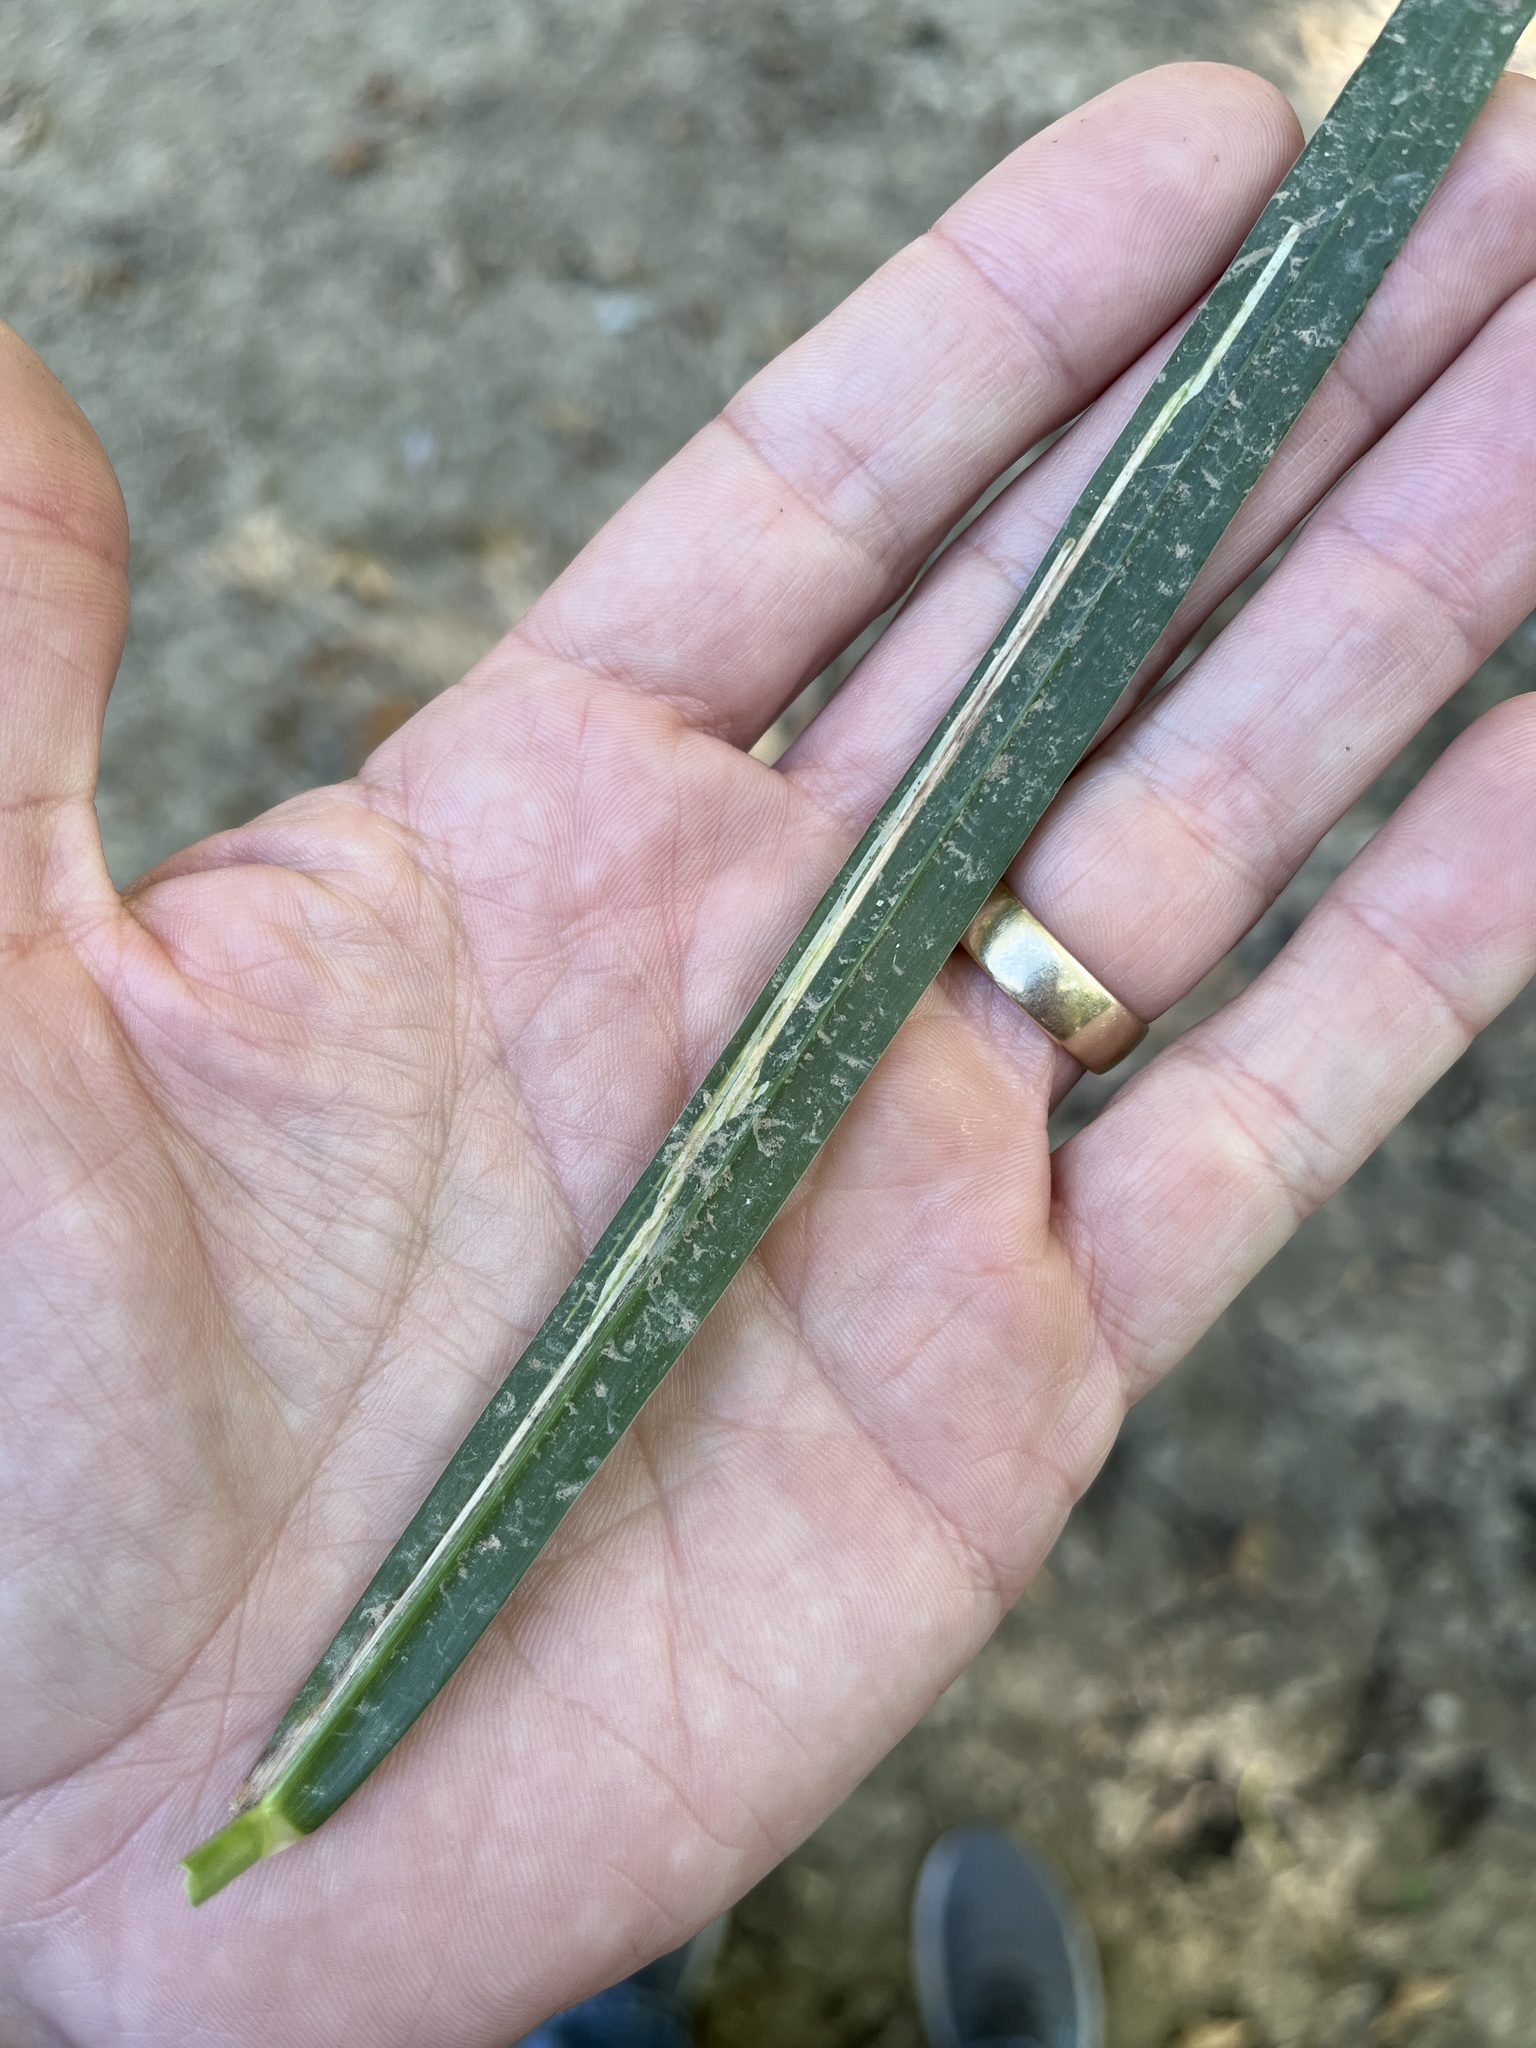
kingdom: Animalia
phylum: Arthropoda
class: Insecta
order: Diptera
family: Agromyzidae
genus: Cerodontha
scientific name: Cerodontha dorsalis
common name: Grass sheathminer fly
